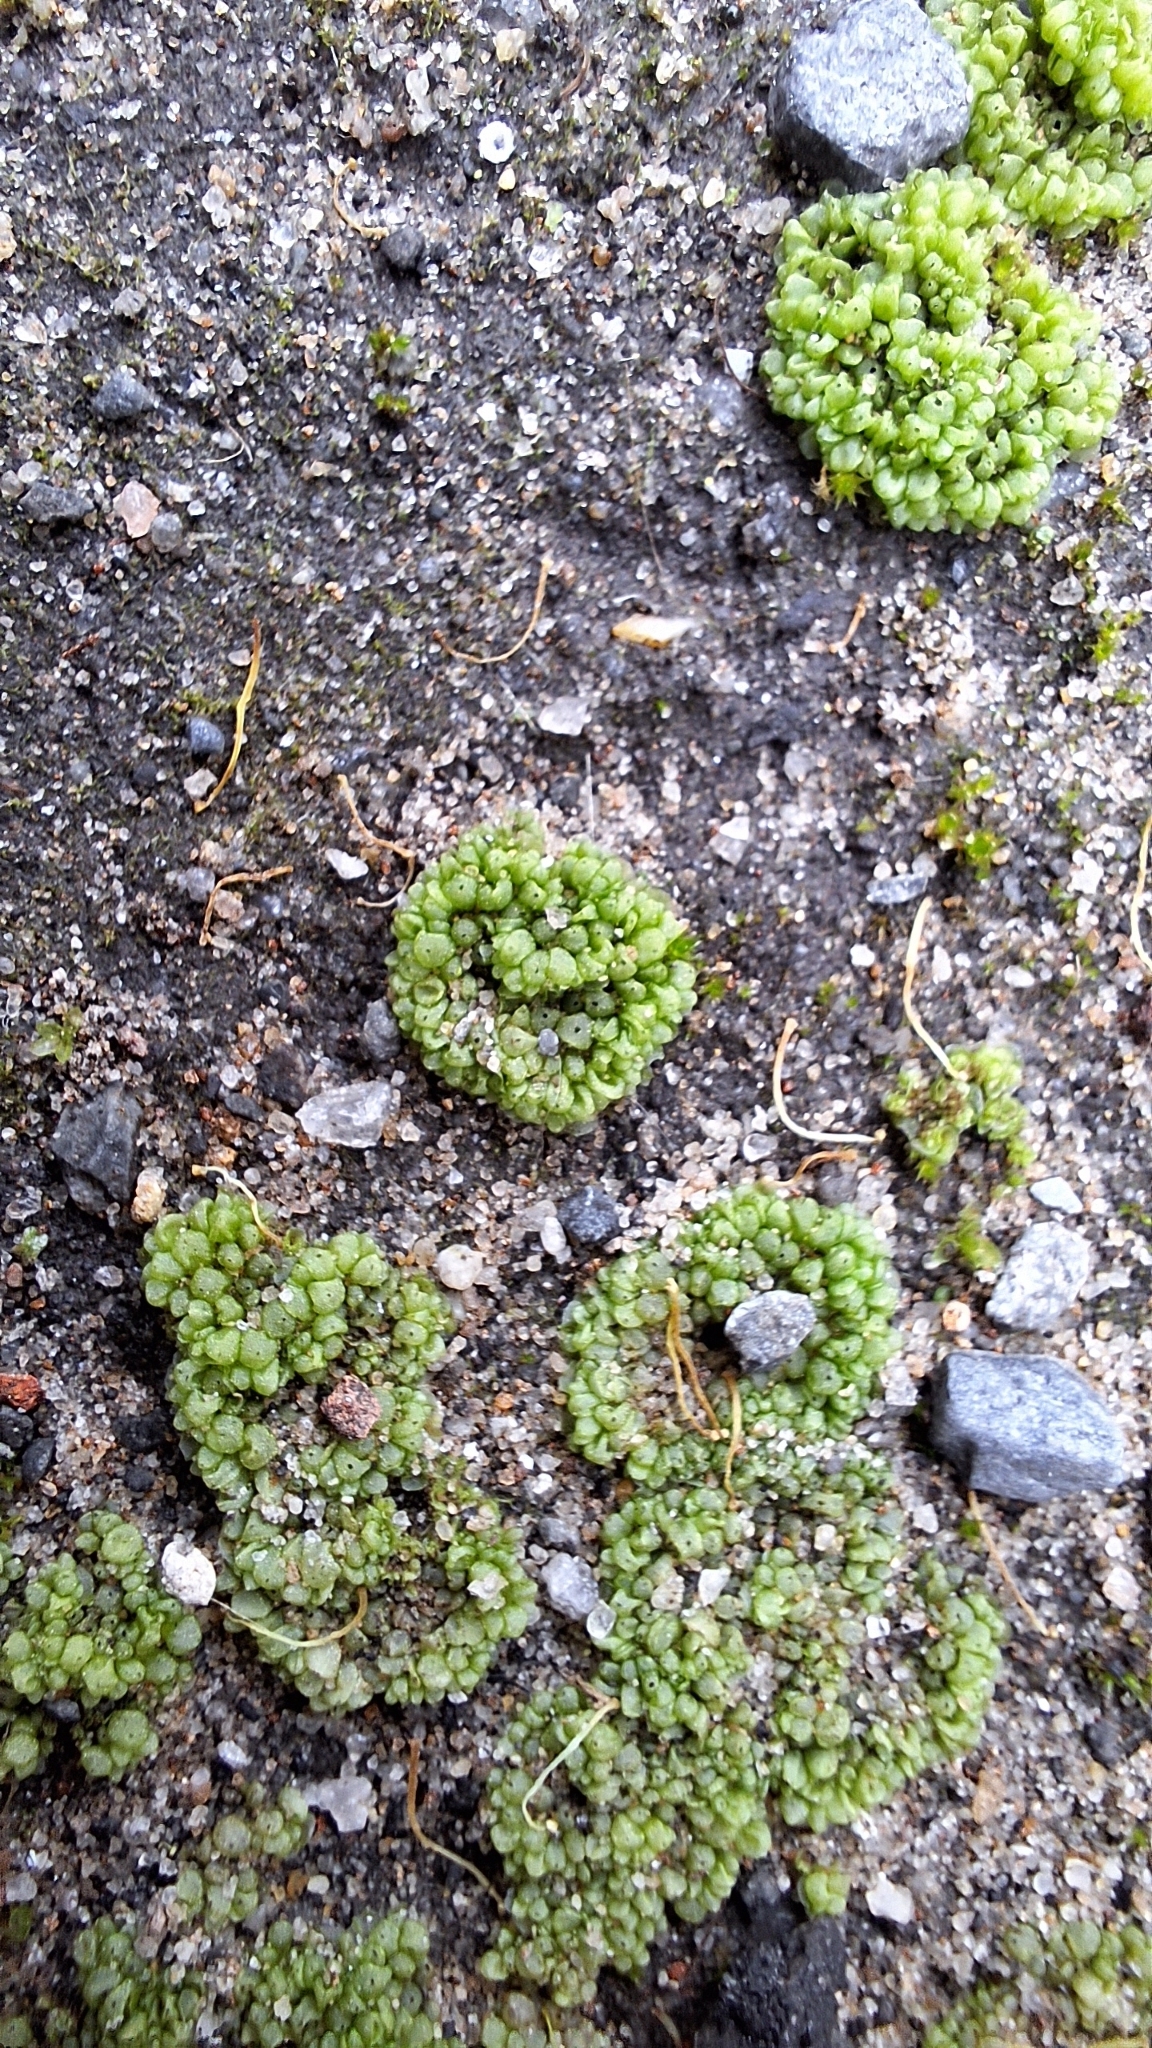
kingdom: Plantae
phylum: Marchantiophyta
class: Marchantiopsida
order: Sphaerocarpales
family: Sphaerocarpaceae
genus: Sphaerocarpos
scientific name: Sphaerocarpos texanus
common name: Texas balloonwort
